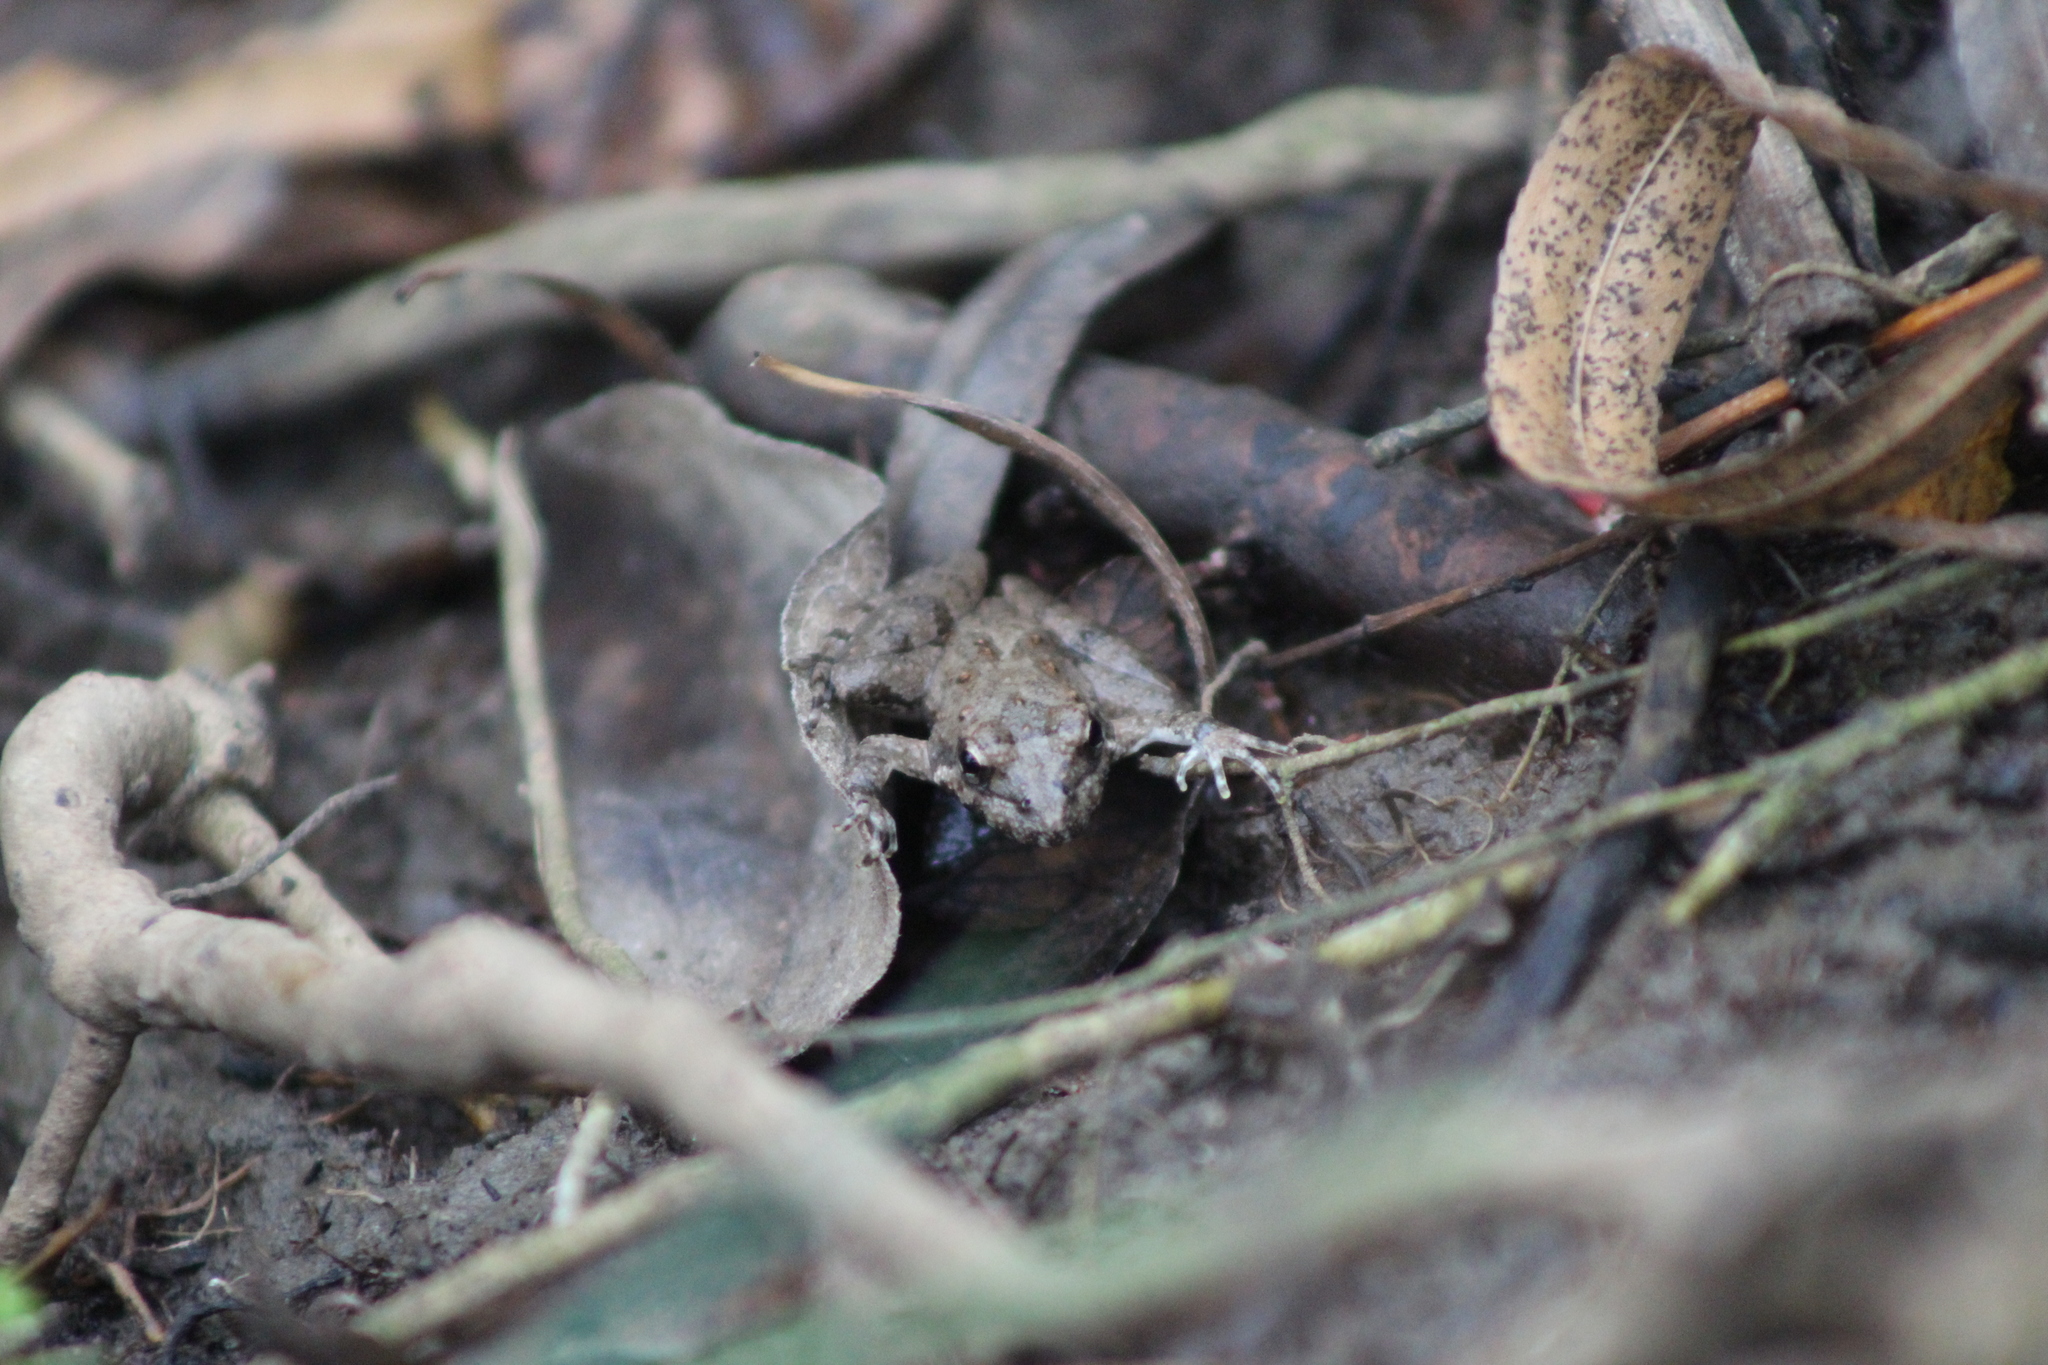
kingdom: Animalia
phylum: Chordata
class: Amphibia
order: Anura
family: Hylidae
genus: Acris
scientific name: Acris blanchardi
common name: Blanchard's cricket frog
